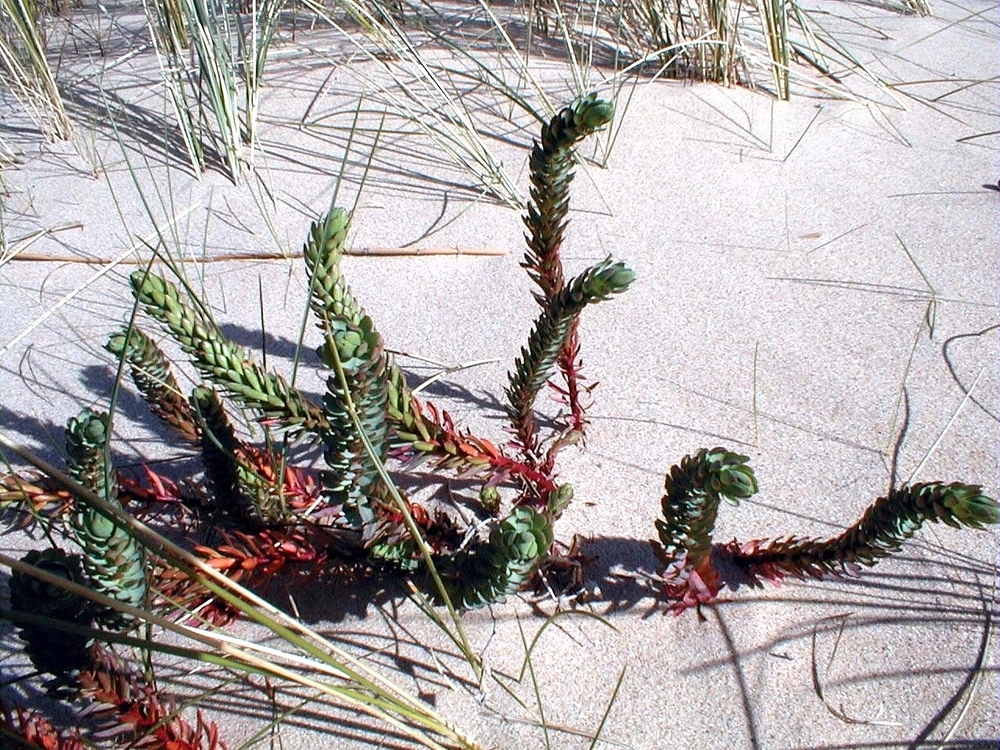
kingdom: Plantae
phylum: Tracheophyta
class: Magnoliopsida
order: Malpighiales
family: Euphorbiaceae
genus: Euphorbia
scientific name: Euphorbia paralias
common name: Sea spurge
